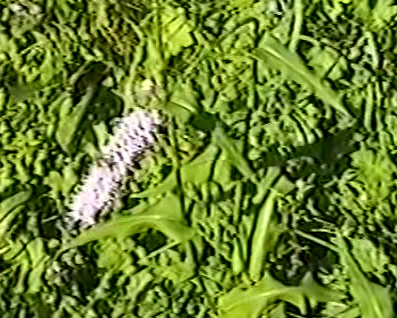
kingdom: Plantae
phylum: Tracheophyta
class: Magnoliopsida
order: Caryophyllales
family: Polygonaceae
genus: Bistorta
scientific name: Bistorta officinalis
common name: Common bistort
